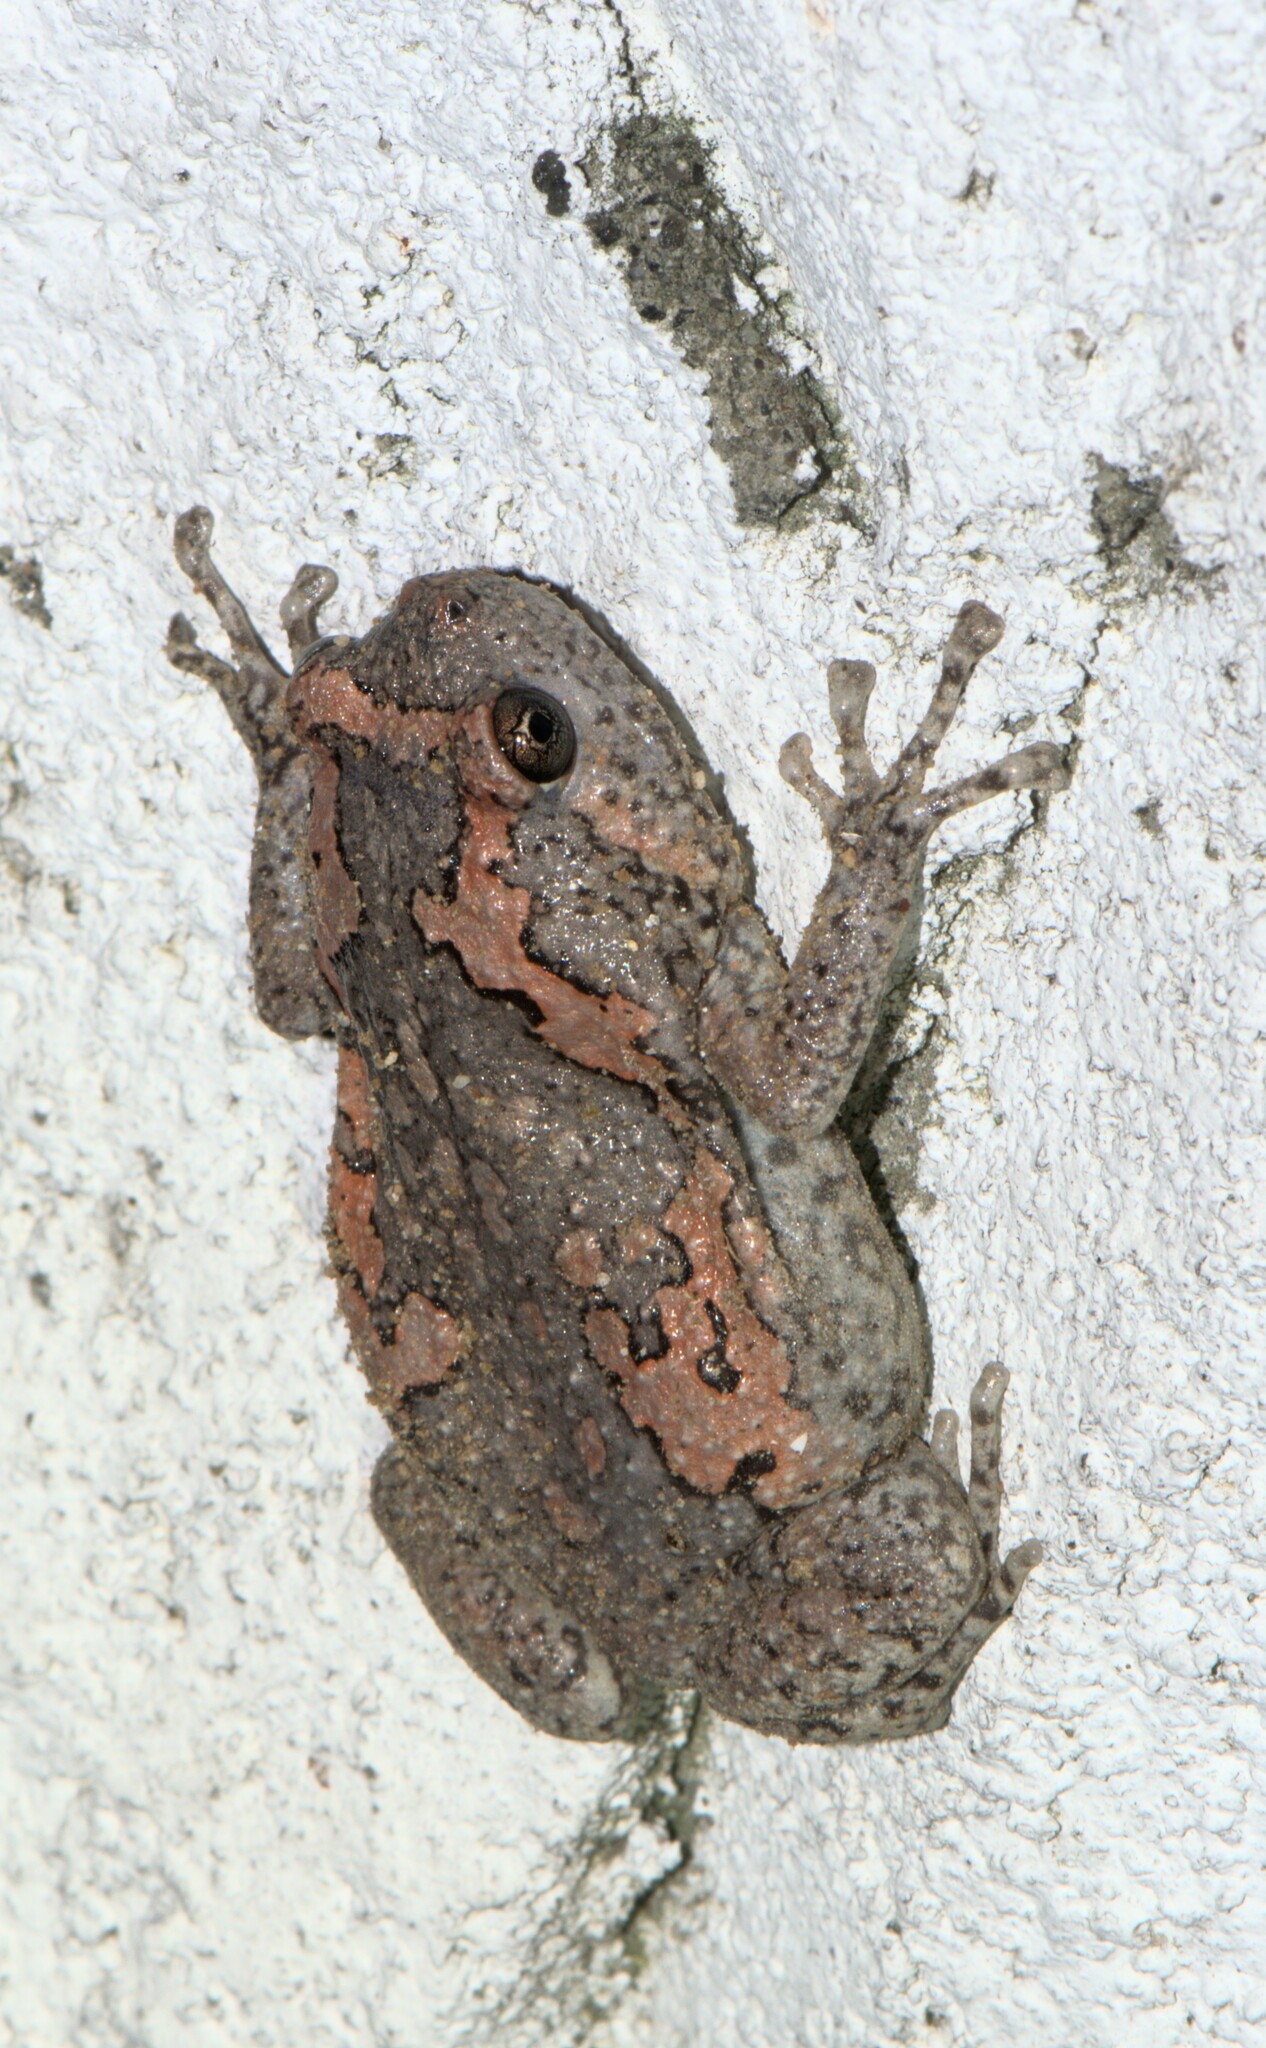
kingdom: Animalia
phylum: Chordata
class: Amphibia
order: Anura
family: Microhylidae
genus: Uperodon
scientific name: Uperodon taprobanicus
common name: Ceylon kaloula
